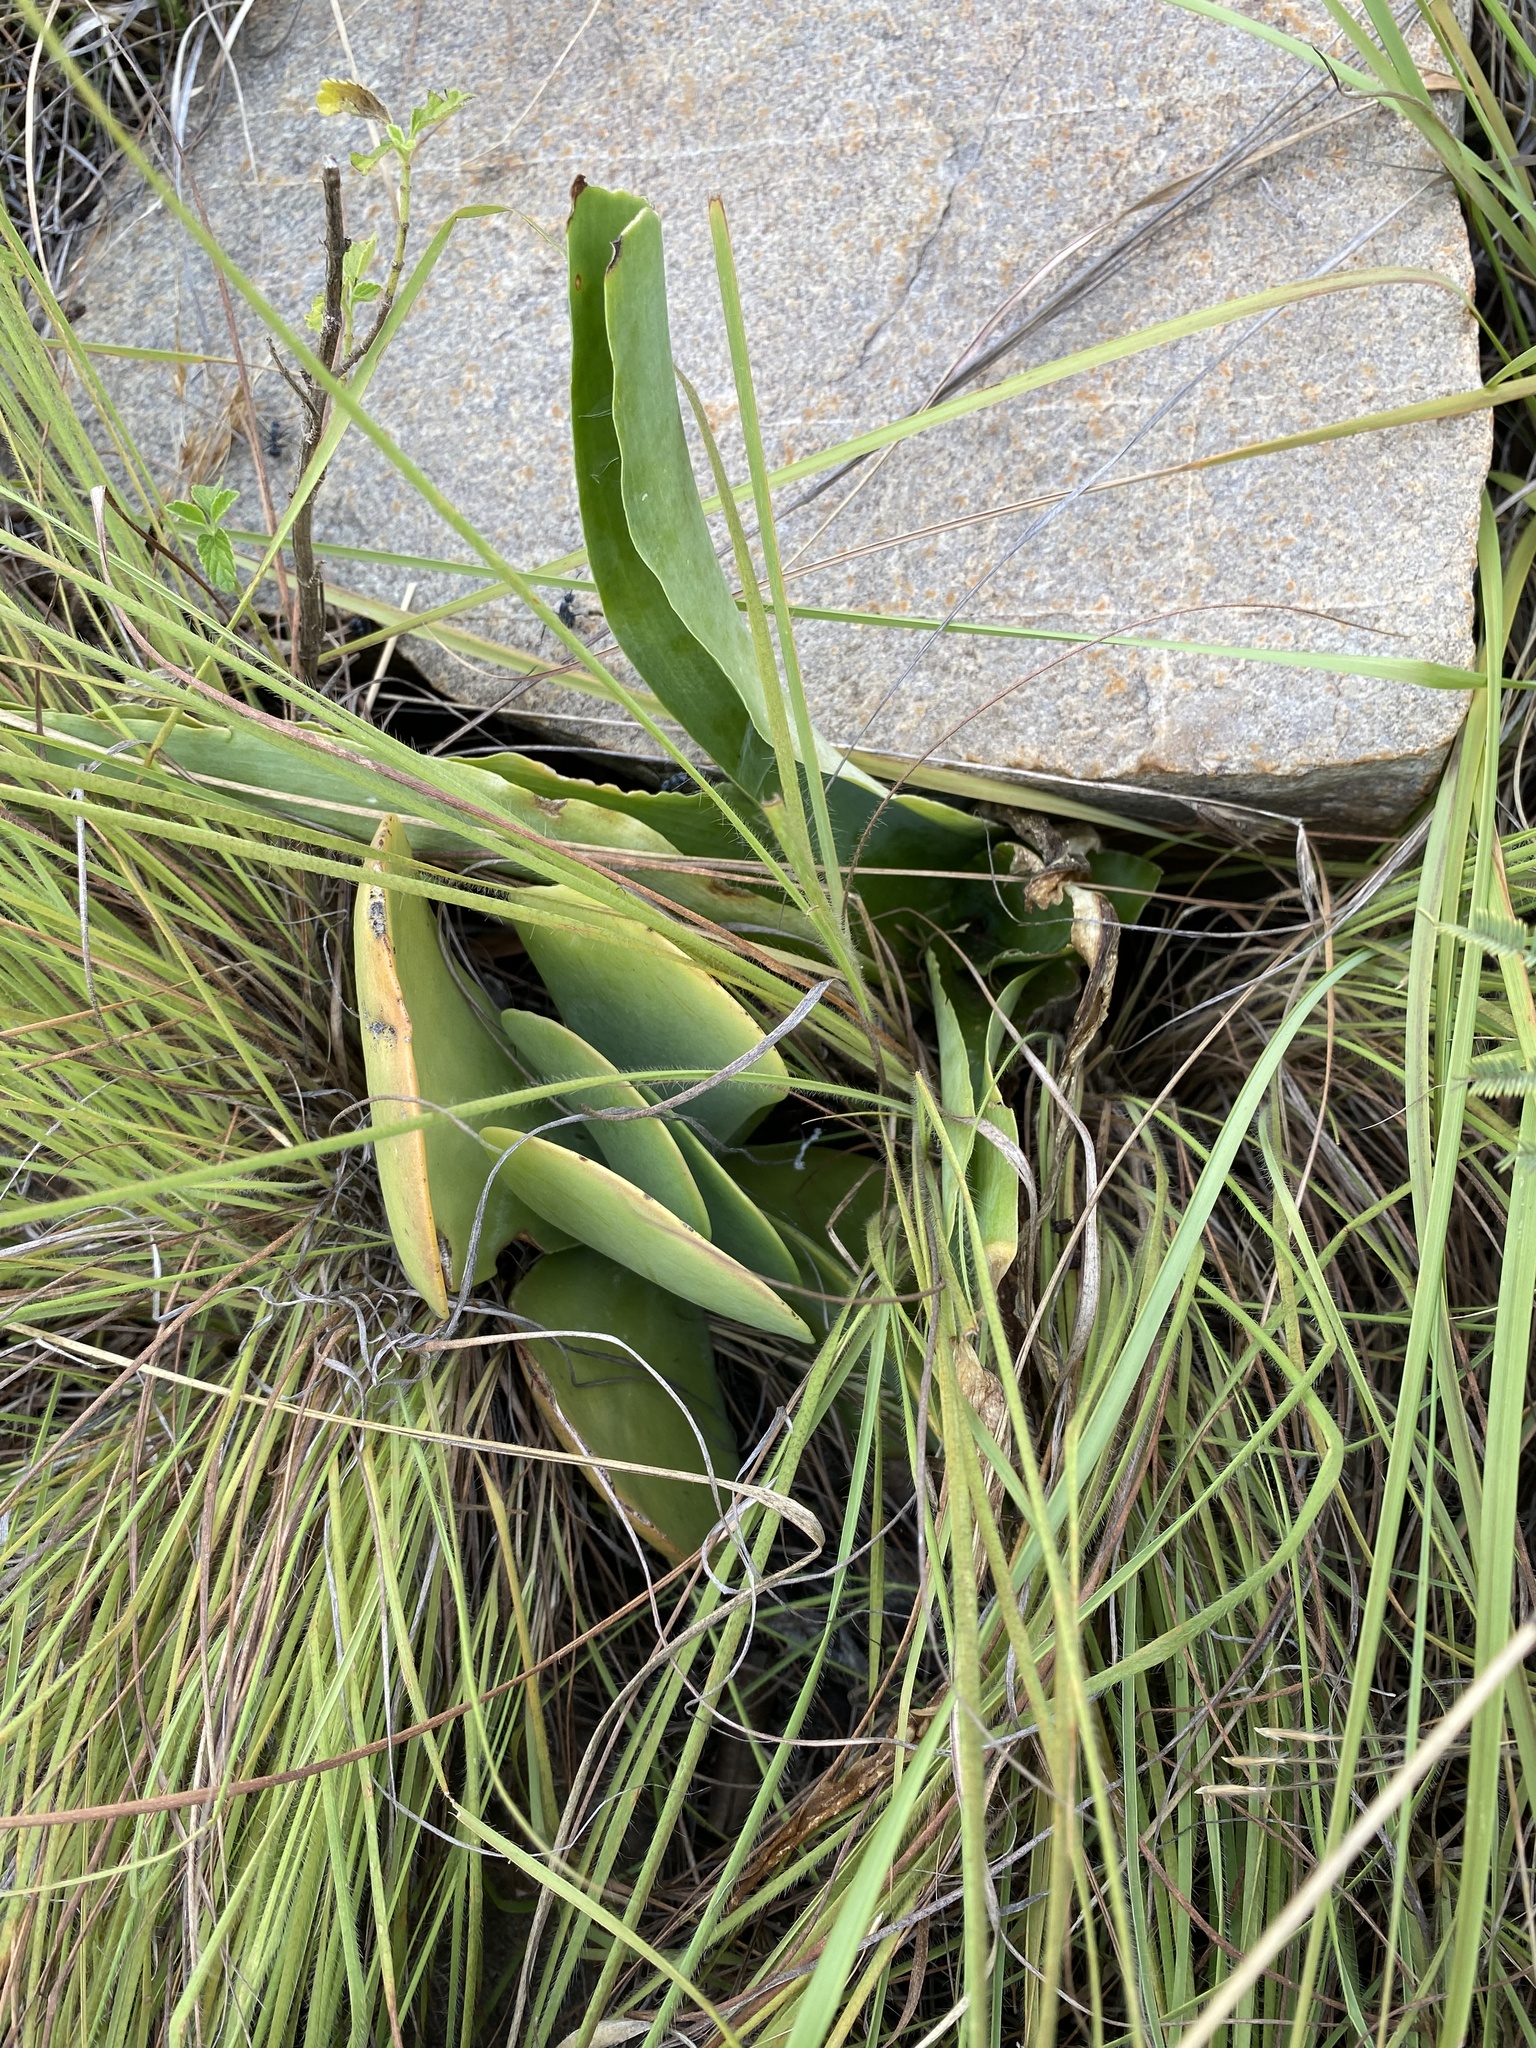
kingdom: Plantae
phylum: Tracheophyta
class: Magnoliopsida
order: Saxifragales
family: Crassulaceae
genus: Kalanchoe
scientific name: Kalanchoe thyrsiflora
